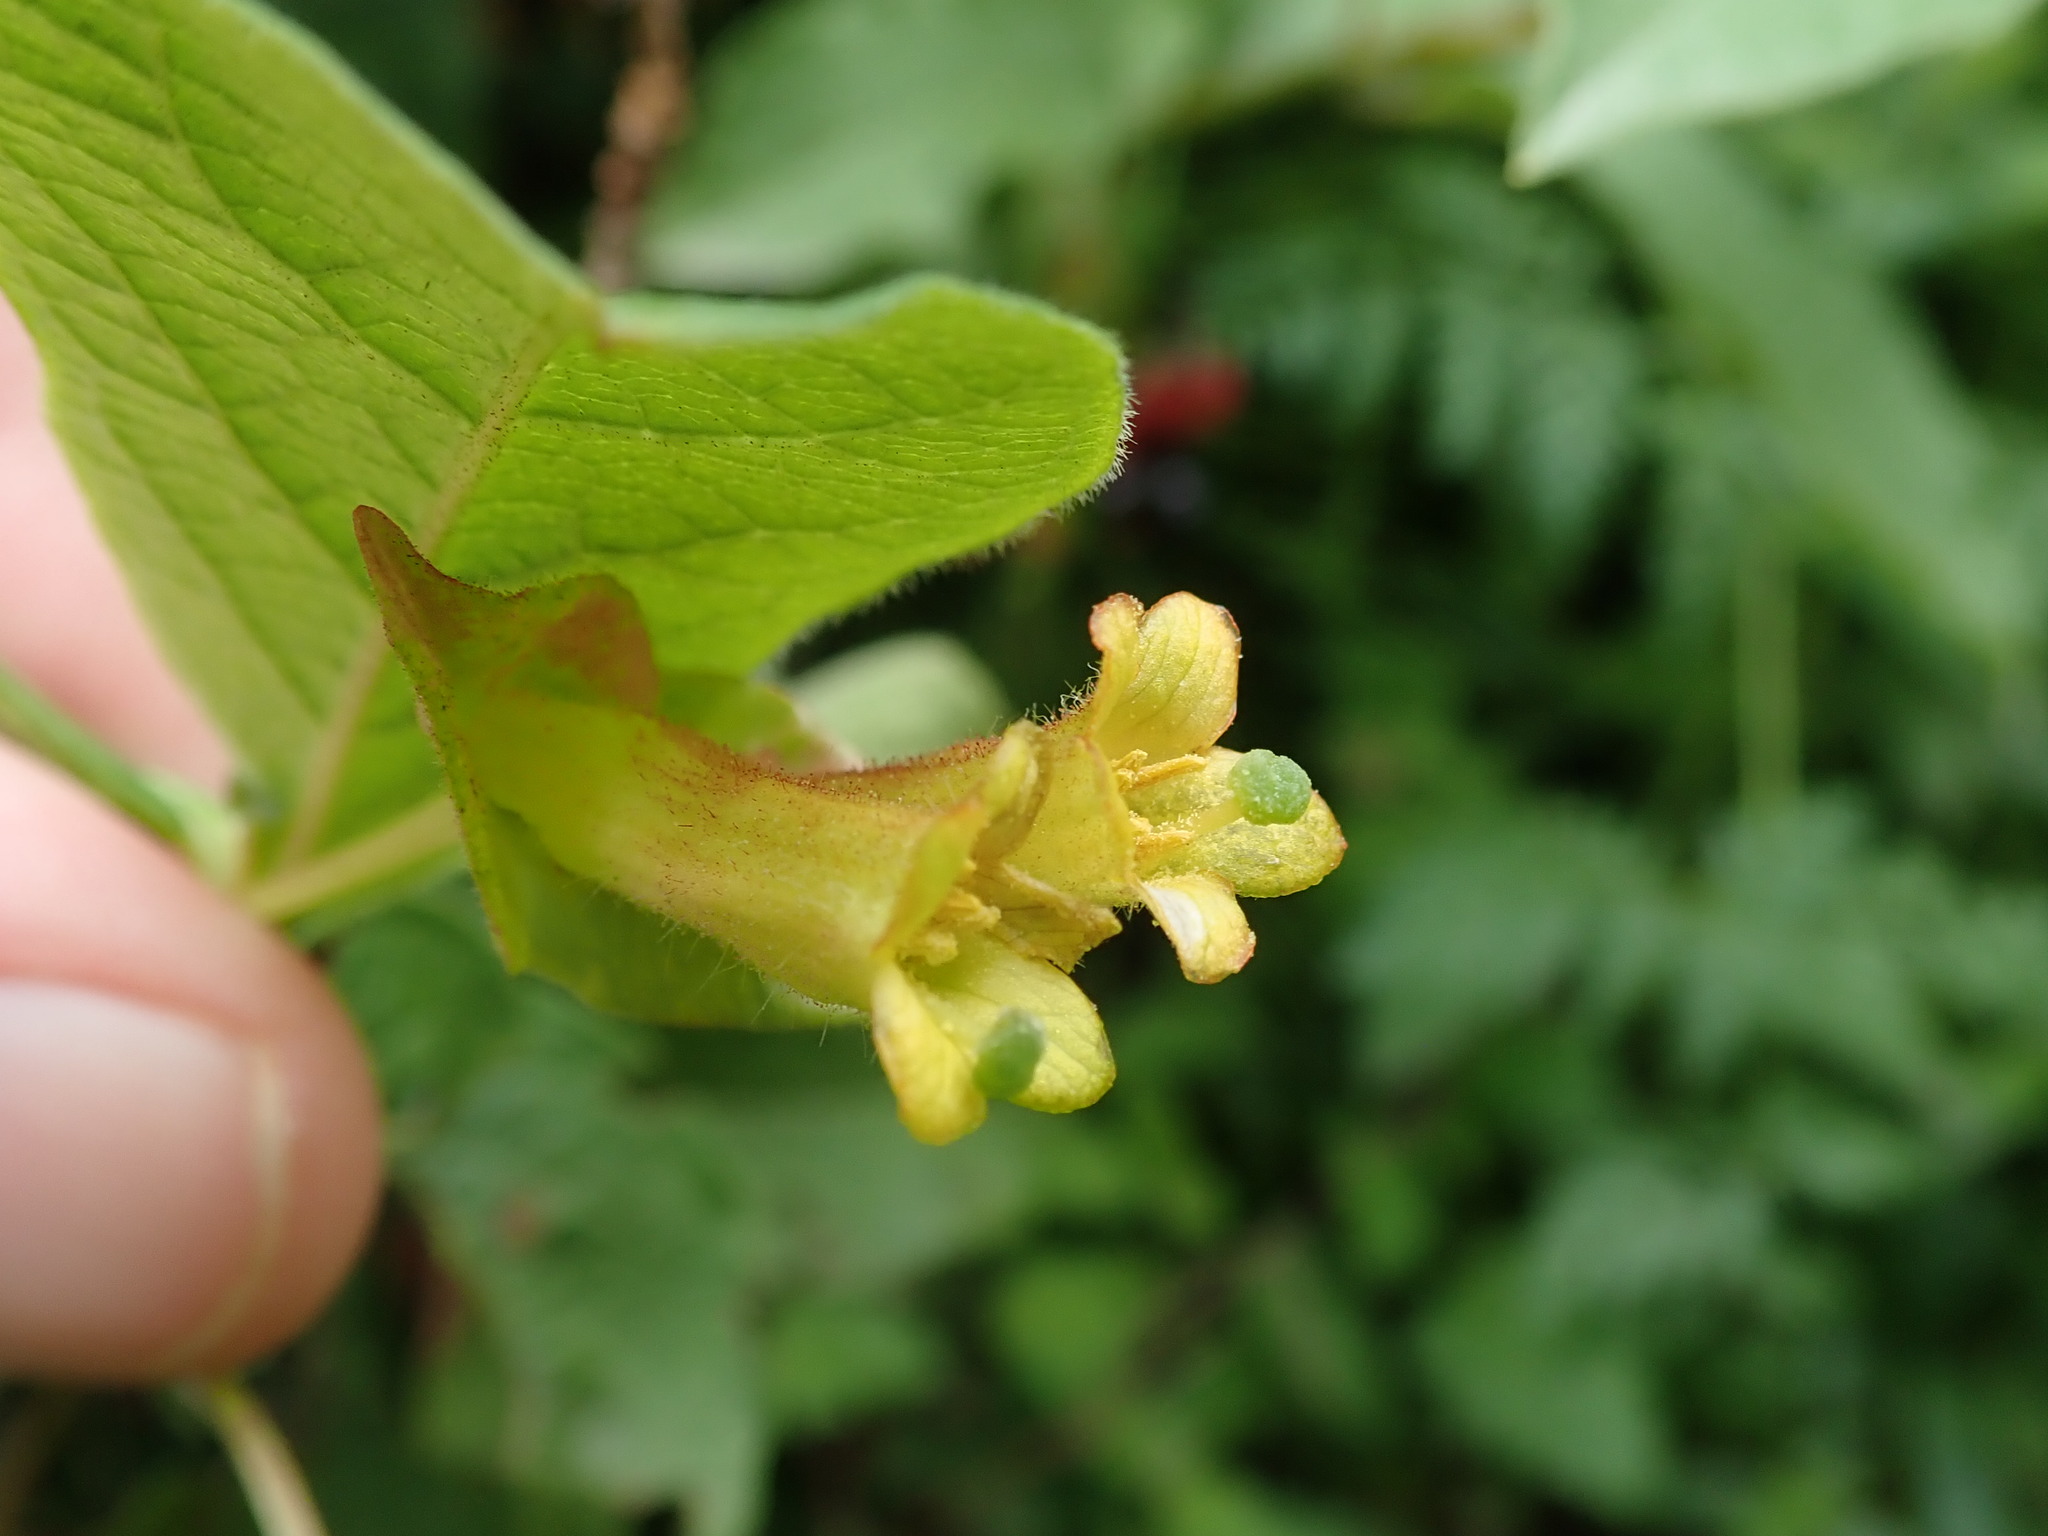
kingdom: Plantae
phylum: Tracheophyta
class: Magnoliopsida
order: Dipsacales
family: Caprifoliaceae
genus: Lonicera
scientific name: Lonicera involucrata
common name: Californian honeysuckle
